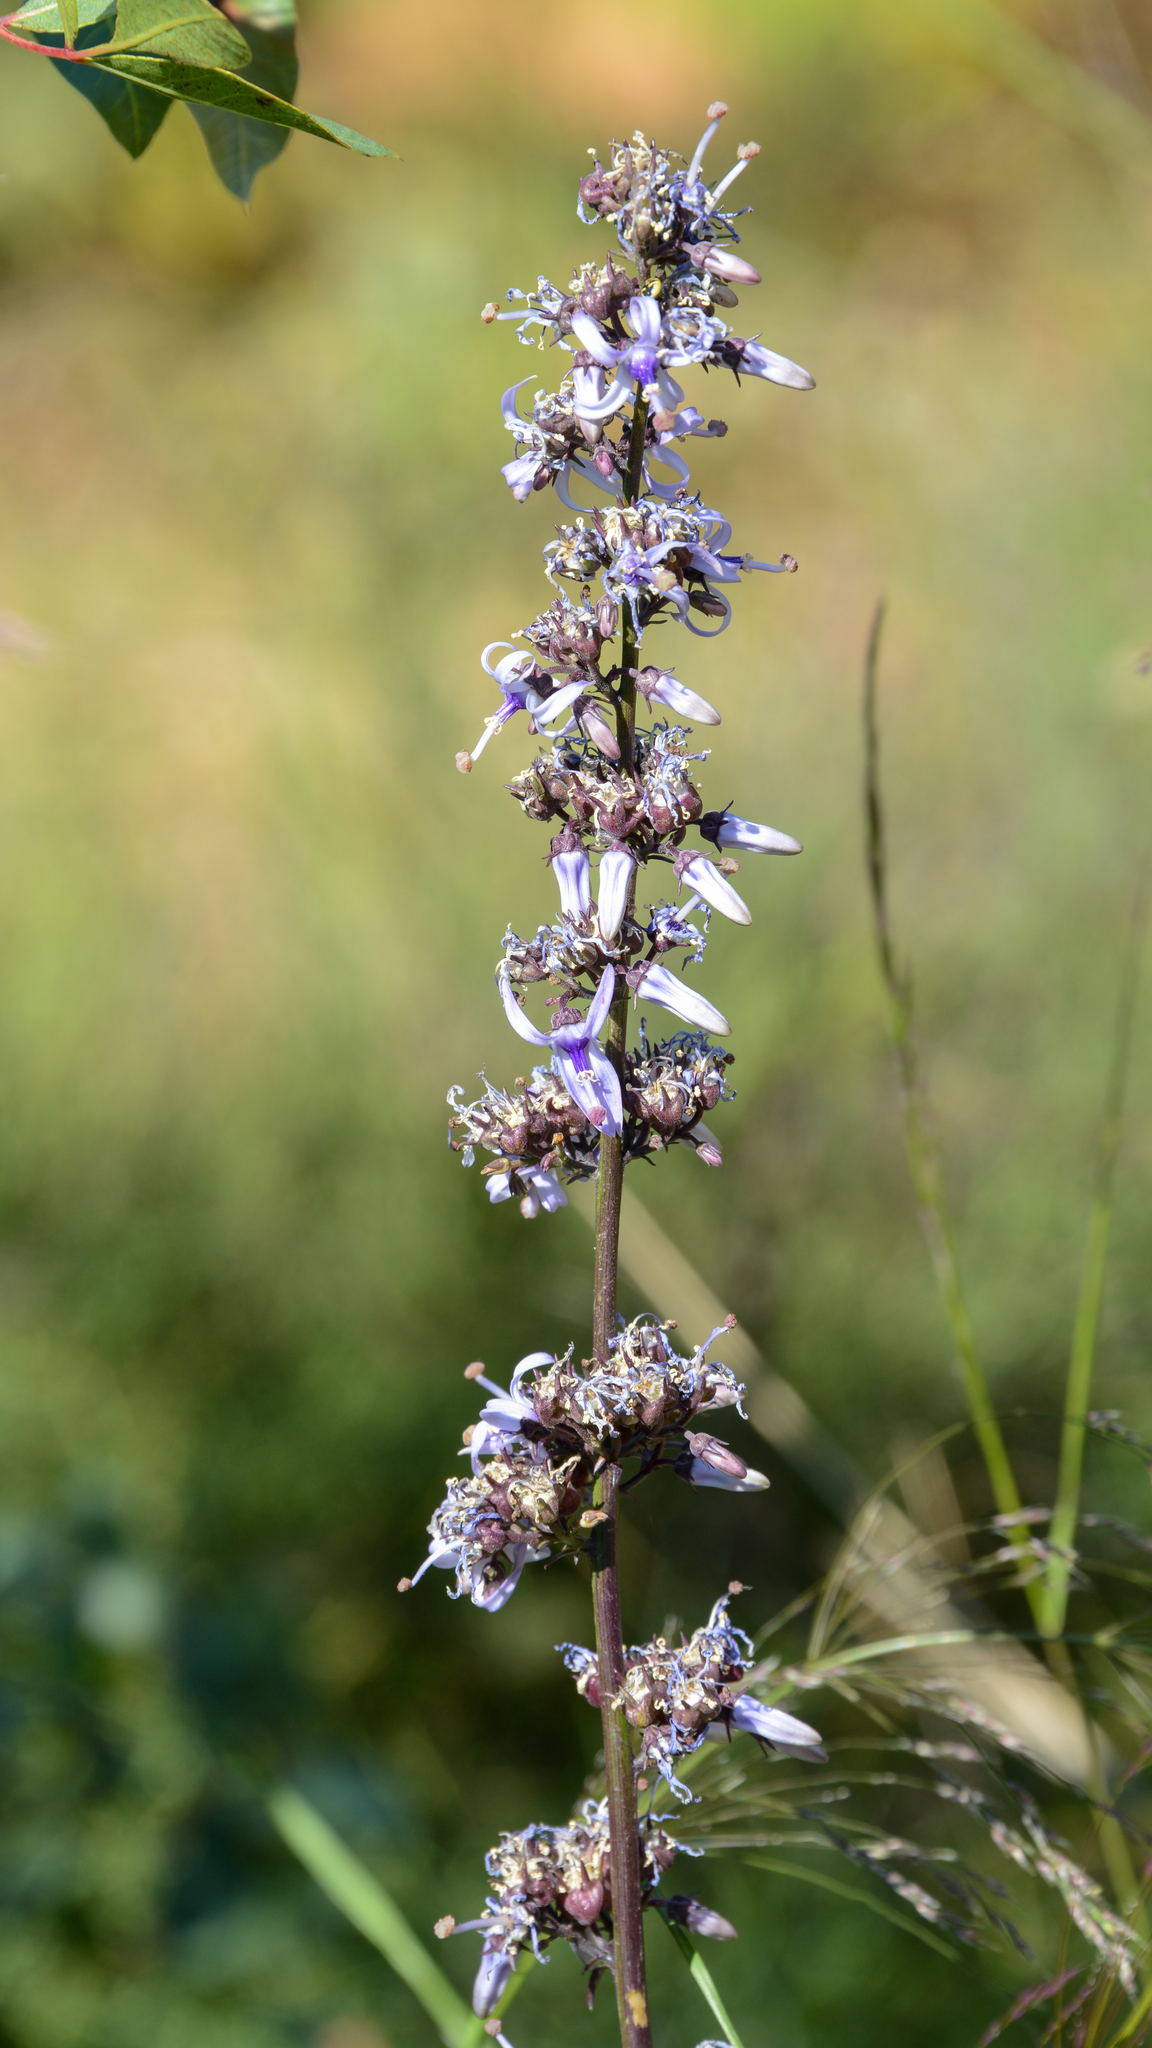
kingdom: Plantae
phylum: Tracheophyta
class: Magnoliopsida
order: Asterales
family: Campanulaceae
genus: Petromarula
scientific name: Petromarula pinnata
